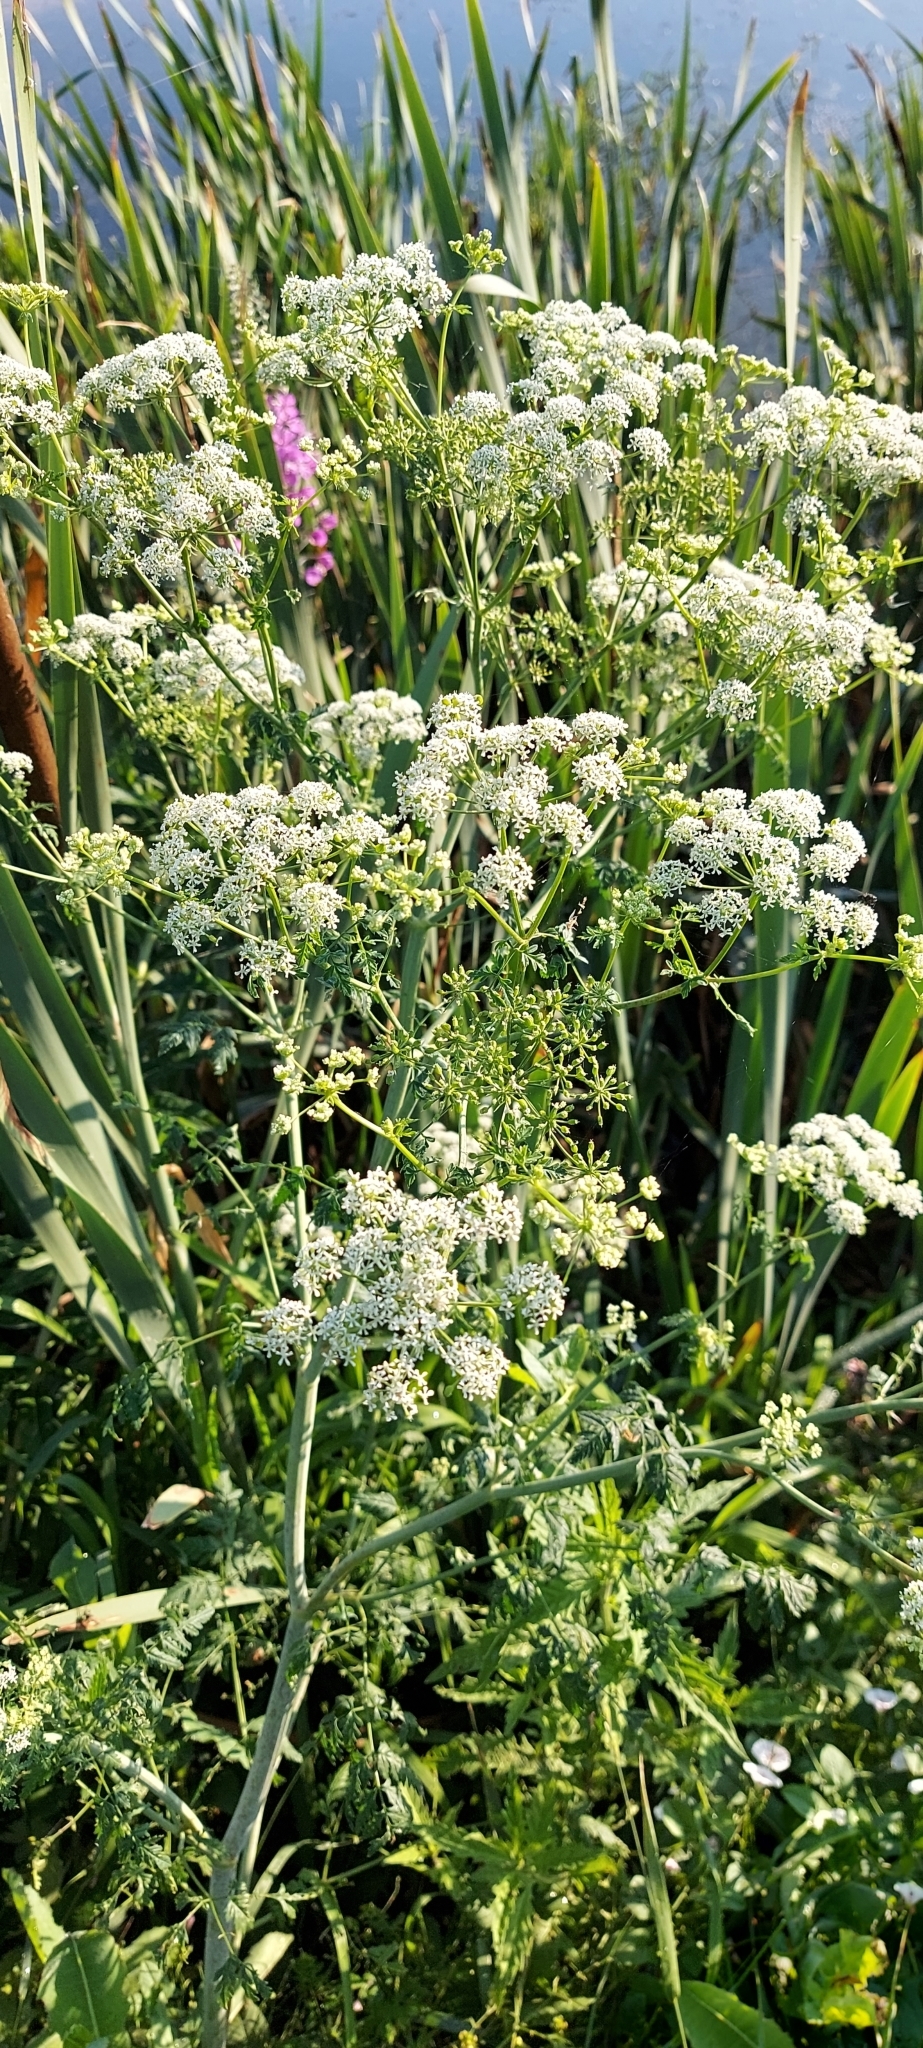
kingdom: Plantae
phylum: Tracheophyta
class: Magnoliopsida
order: Apiales
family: Apiaceae
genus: Conium
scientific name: Conium maculatum
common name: Hemlock
